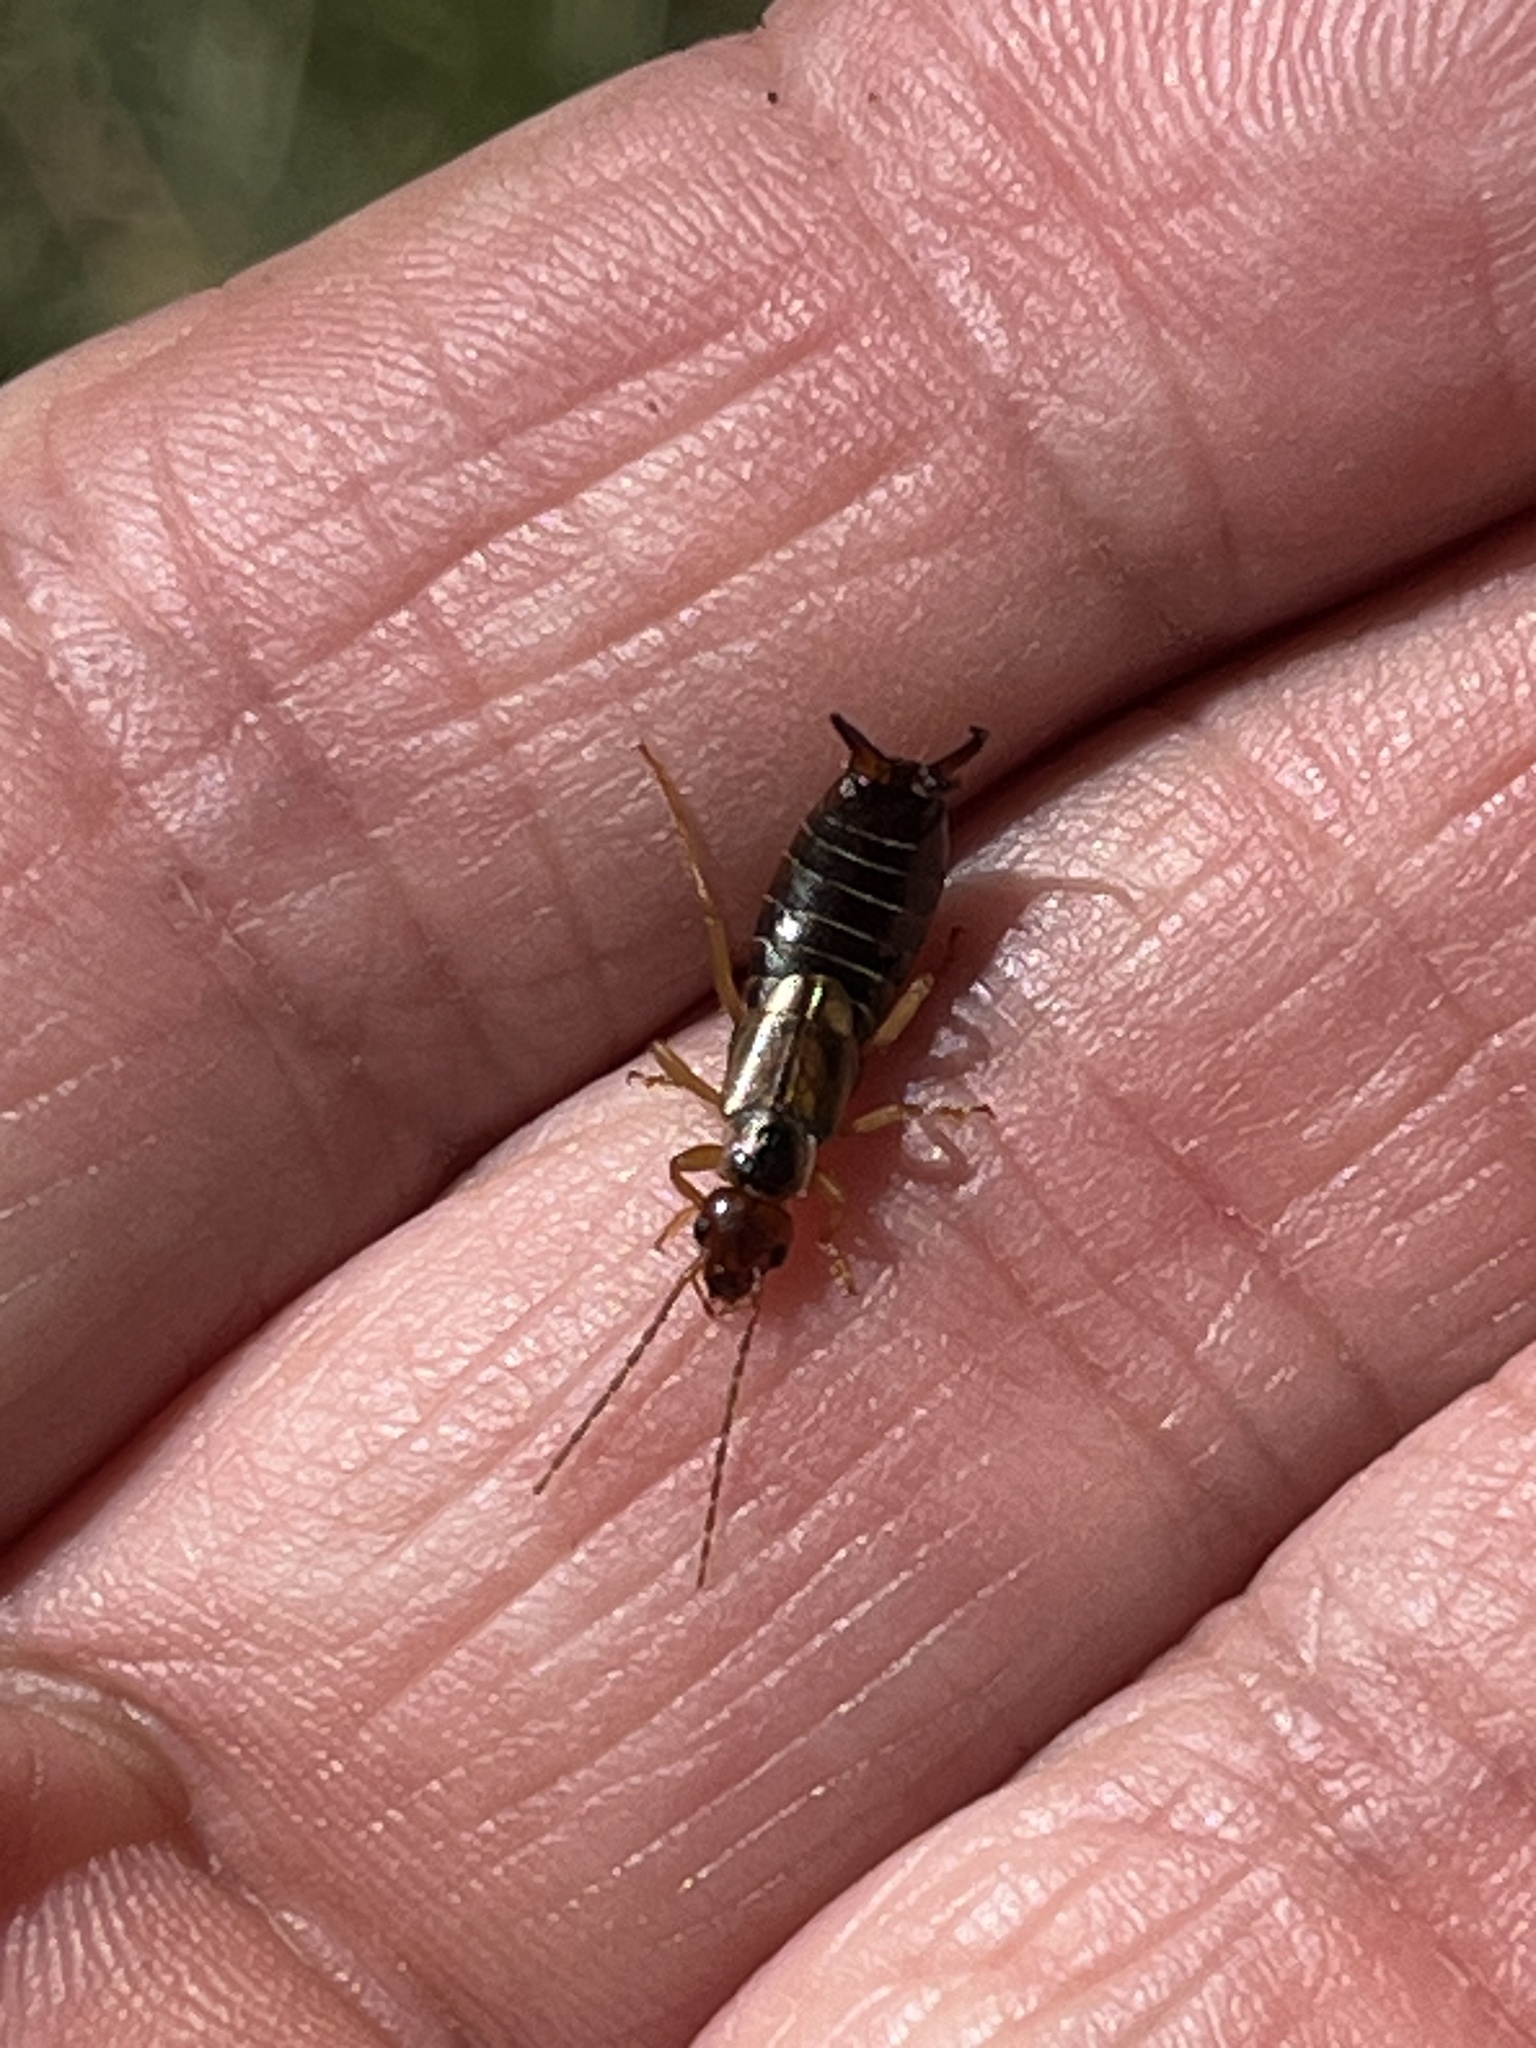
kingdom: Animalia
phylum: Arthropoda
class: Insecta
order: Dermaptera
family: Forficulidae
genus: Forficula
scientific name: Forficula
